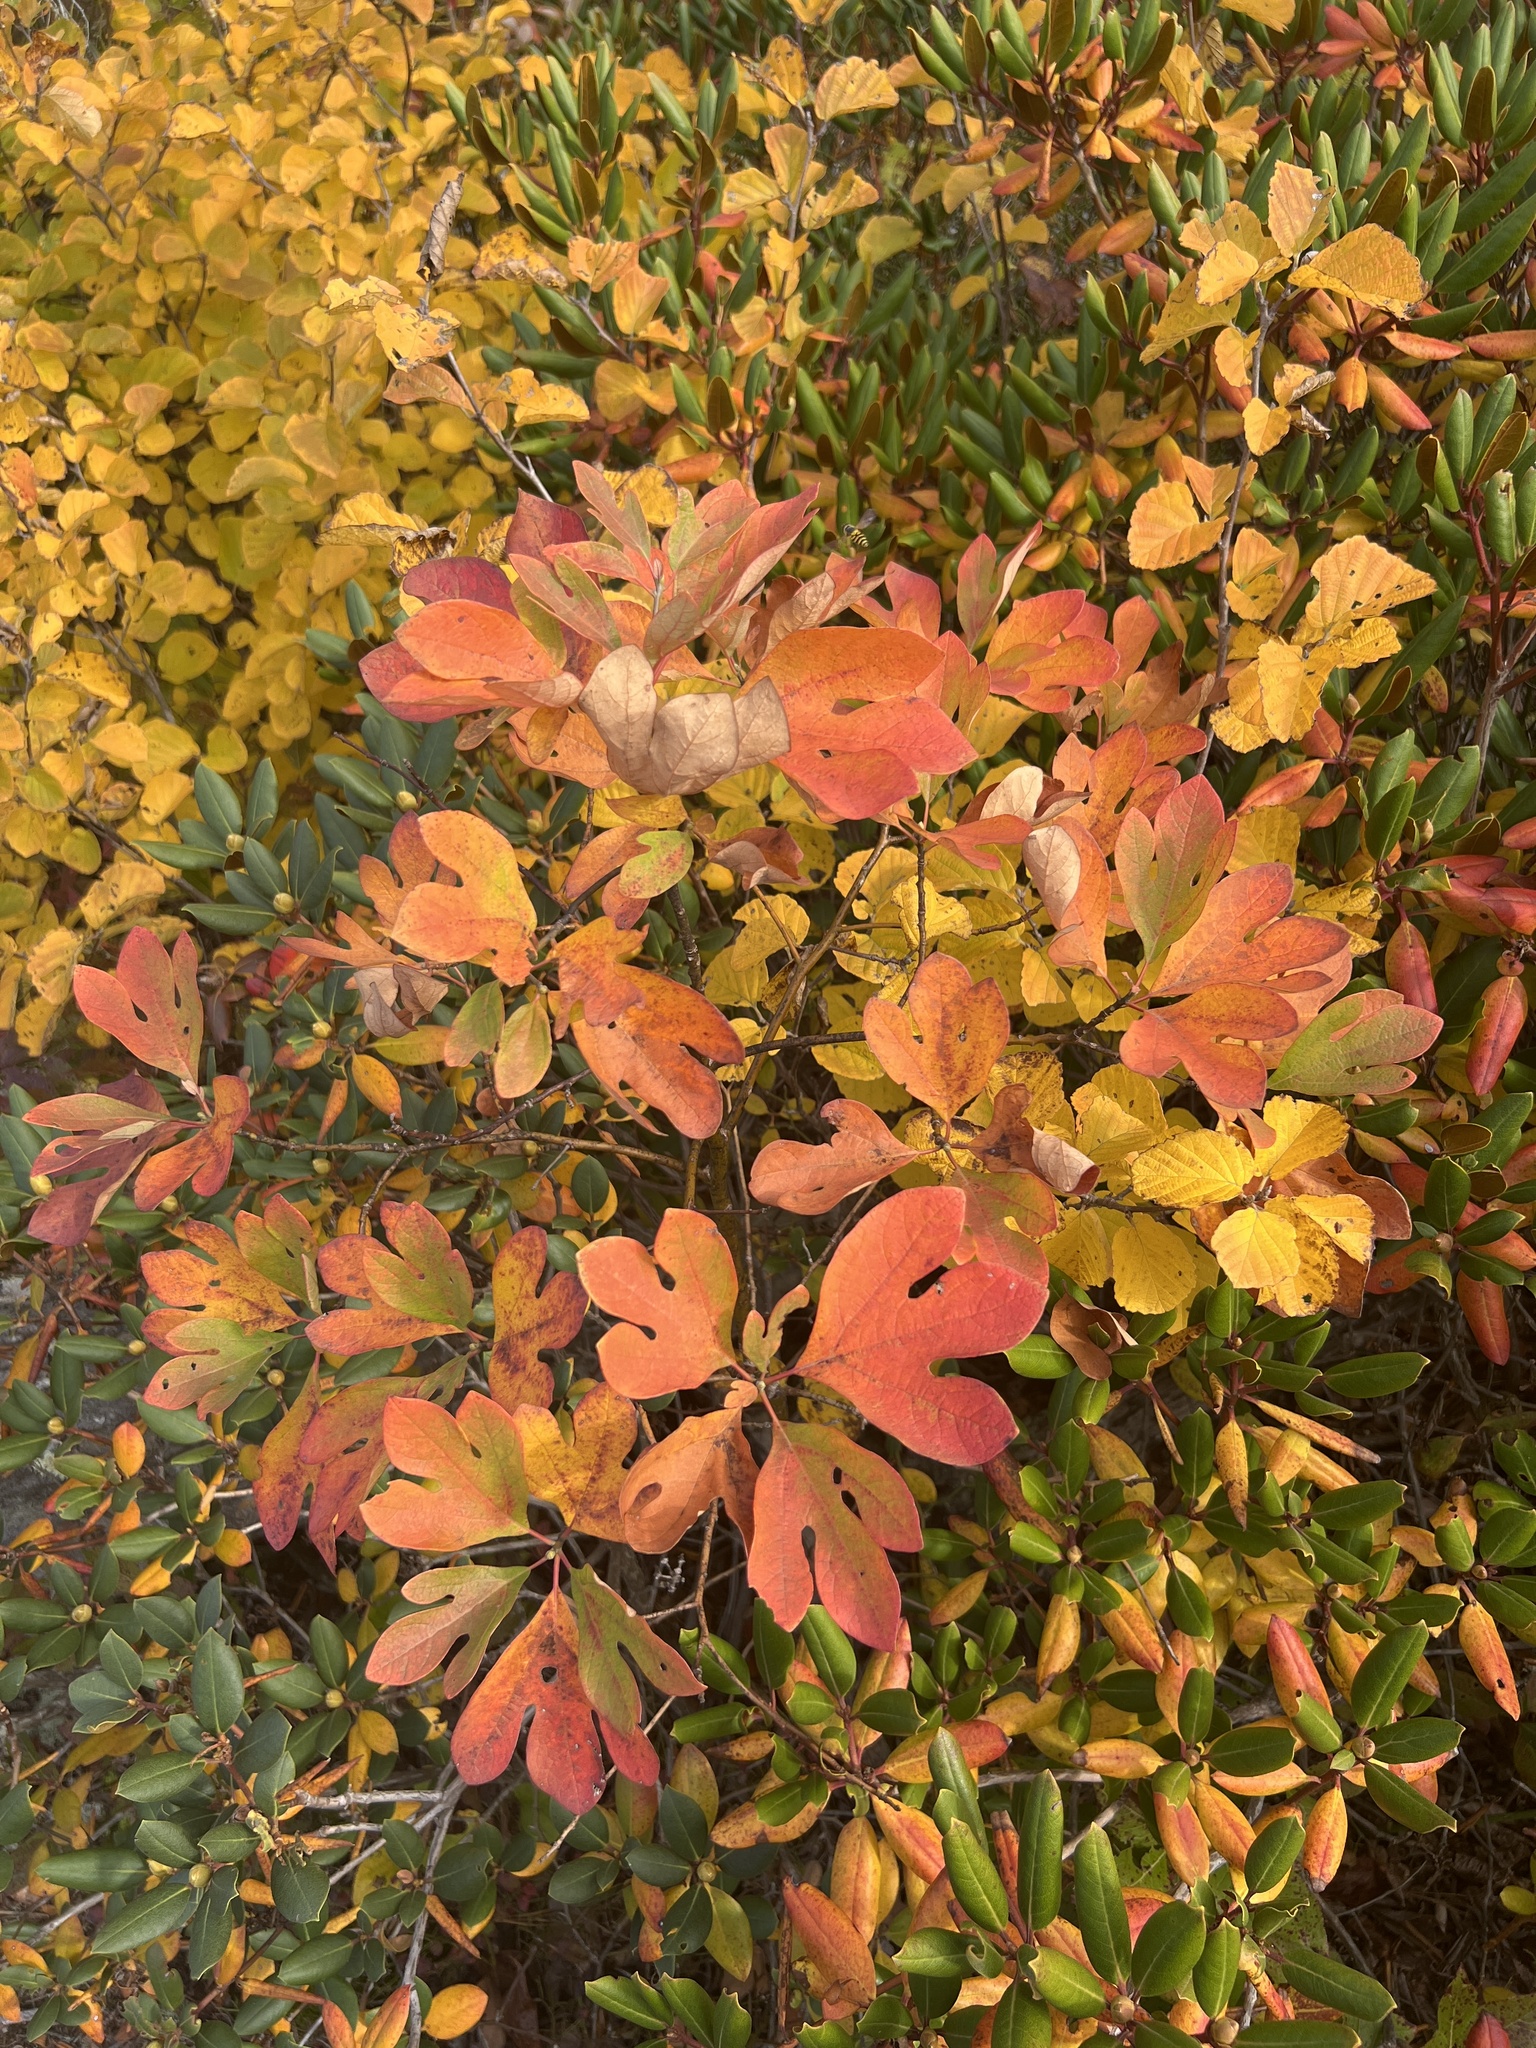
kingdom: Plantae
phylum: Tracheophyta
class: Magnoliopsida
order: Laurales
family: Lauraceae
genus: Sassafras
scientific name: Sassafras albidum
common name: Sassafras
